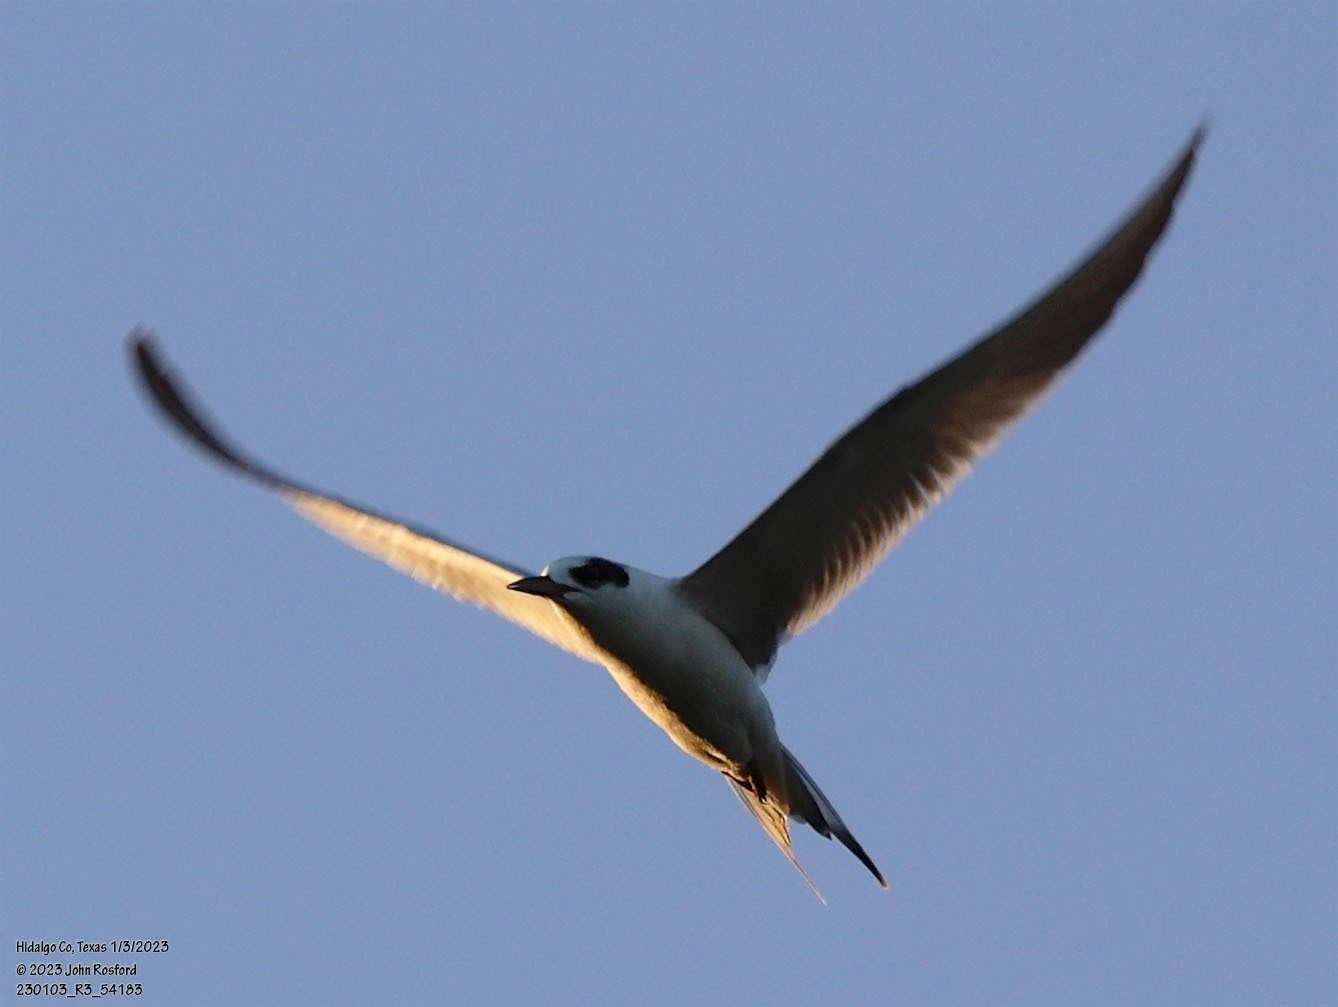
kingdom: Animalia
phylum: Chordata
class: Aves
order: Charadriiformes
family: Laridae
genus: Sterna
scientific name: Sterna forsteri
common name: Forster's tern
